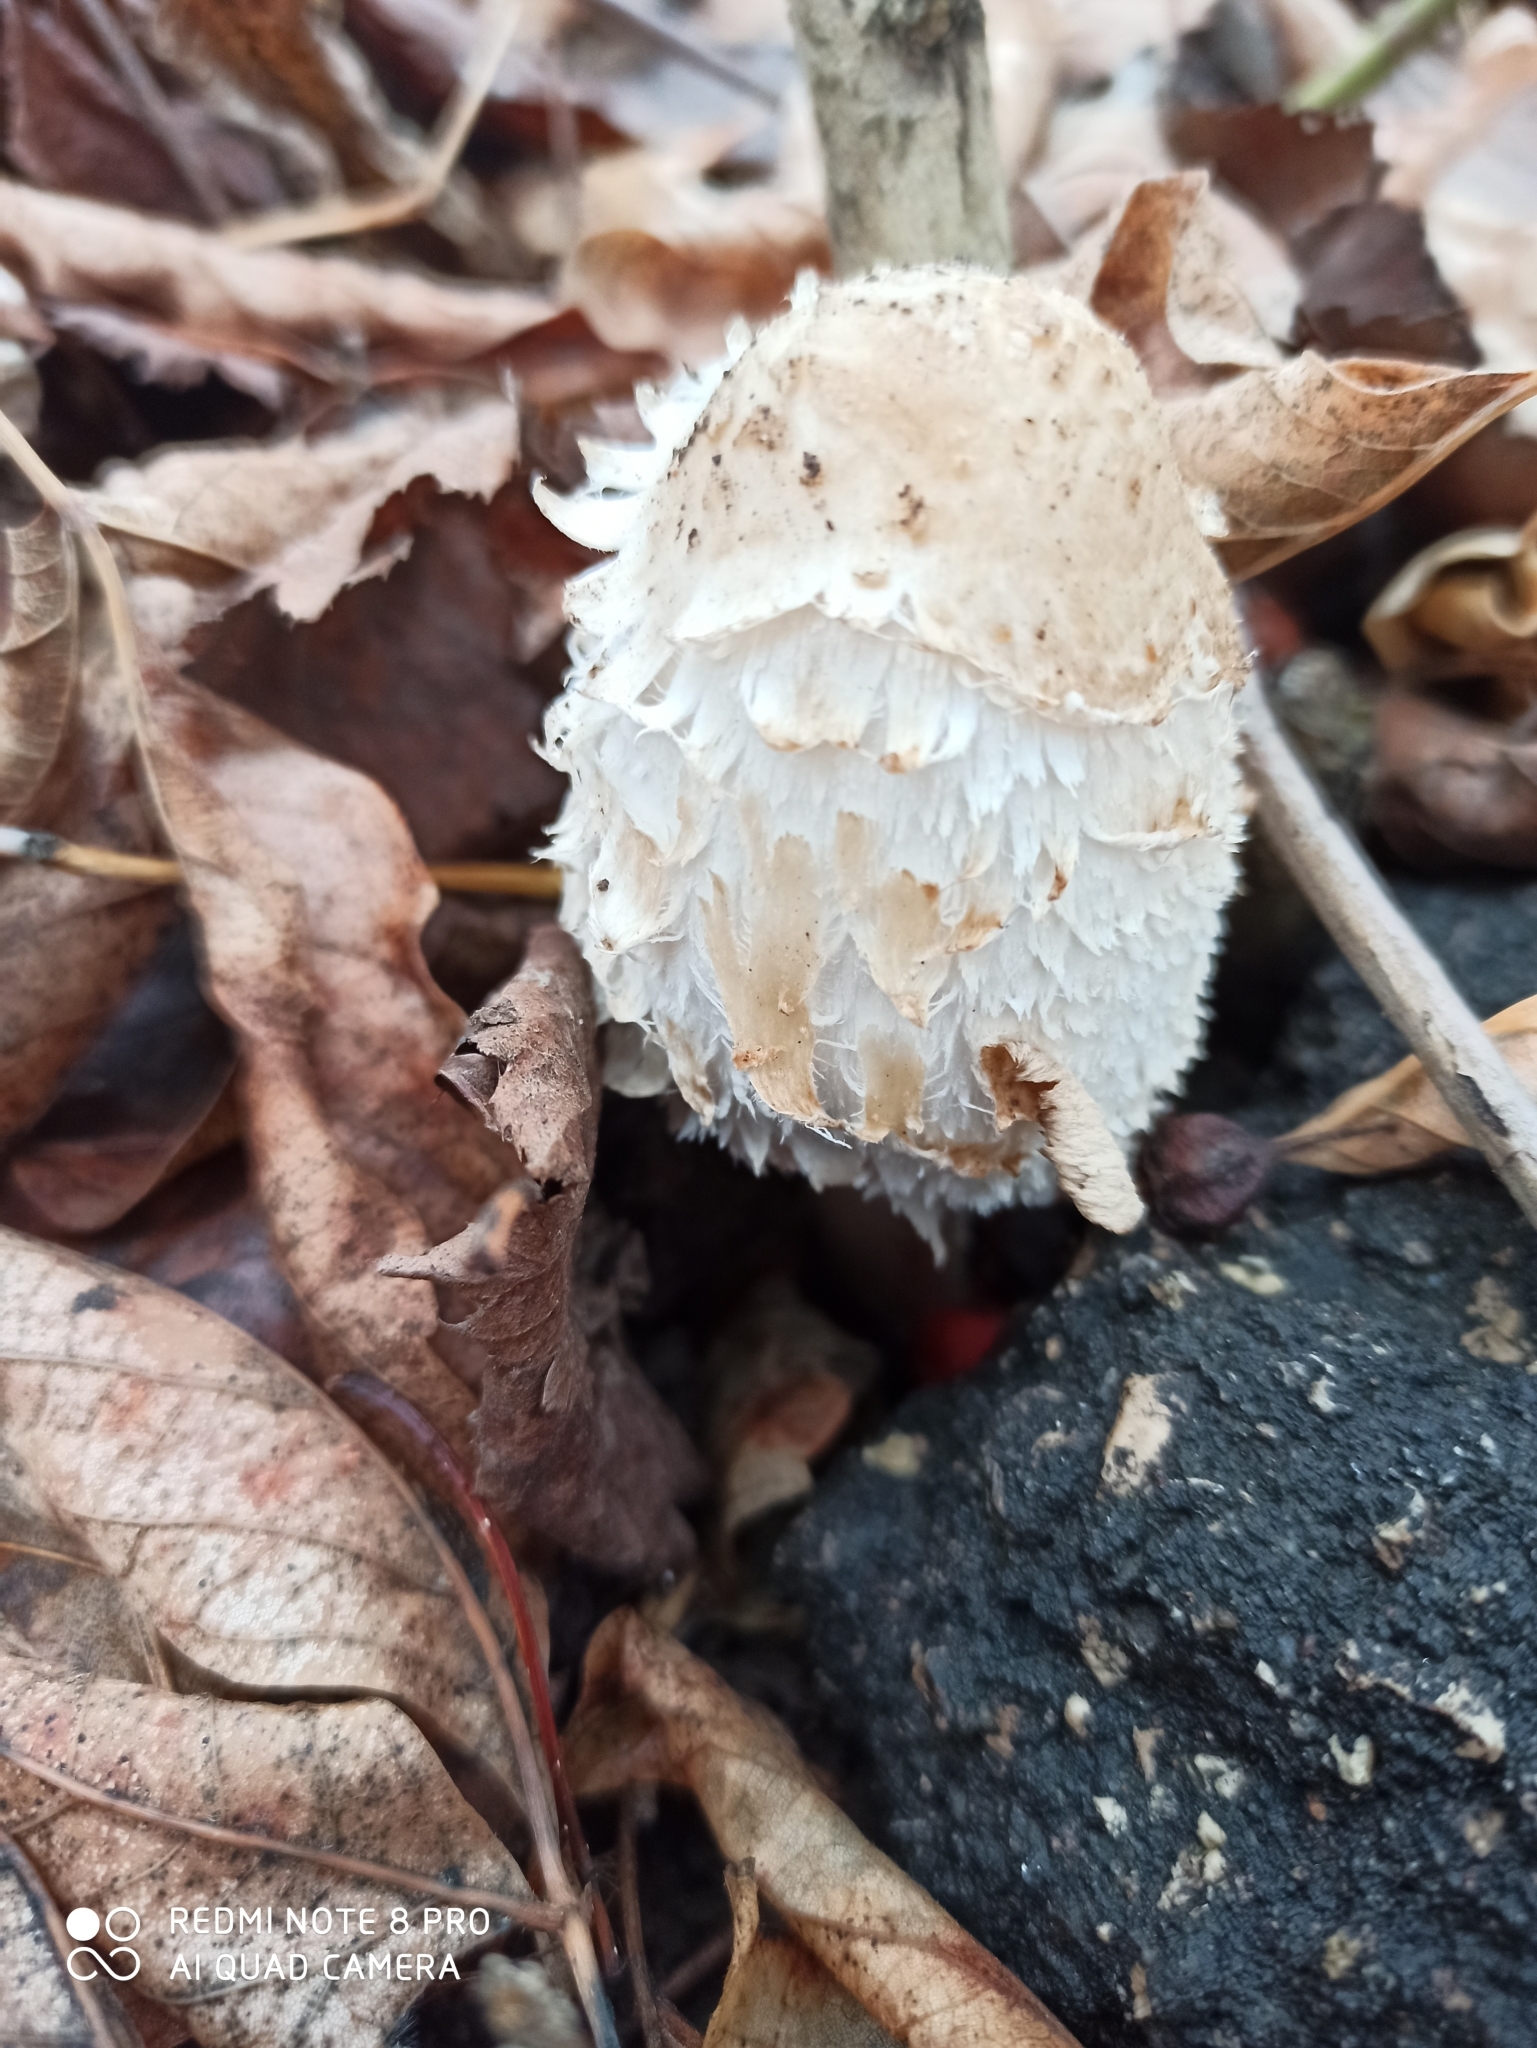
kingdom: Fungi
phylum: Basidiomycota
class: Agaricomycetes
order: Agaricales
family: Agaricaceae
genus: Coprinus
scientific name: Coprinus comatus
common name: Lawyer's wig
